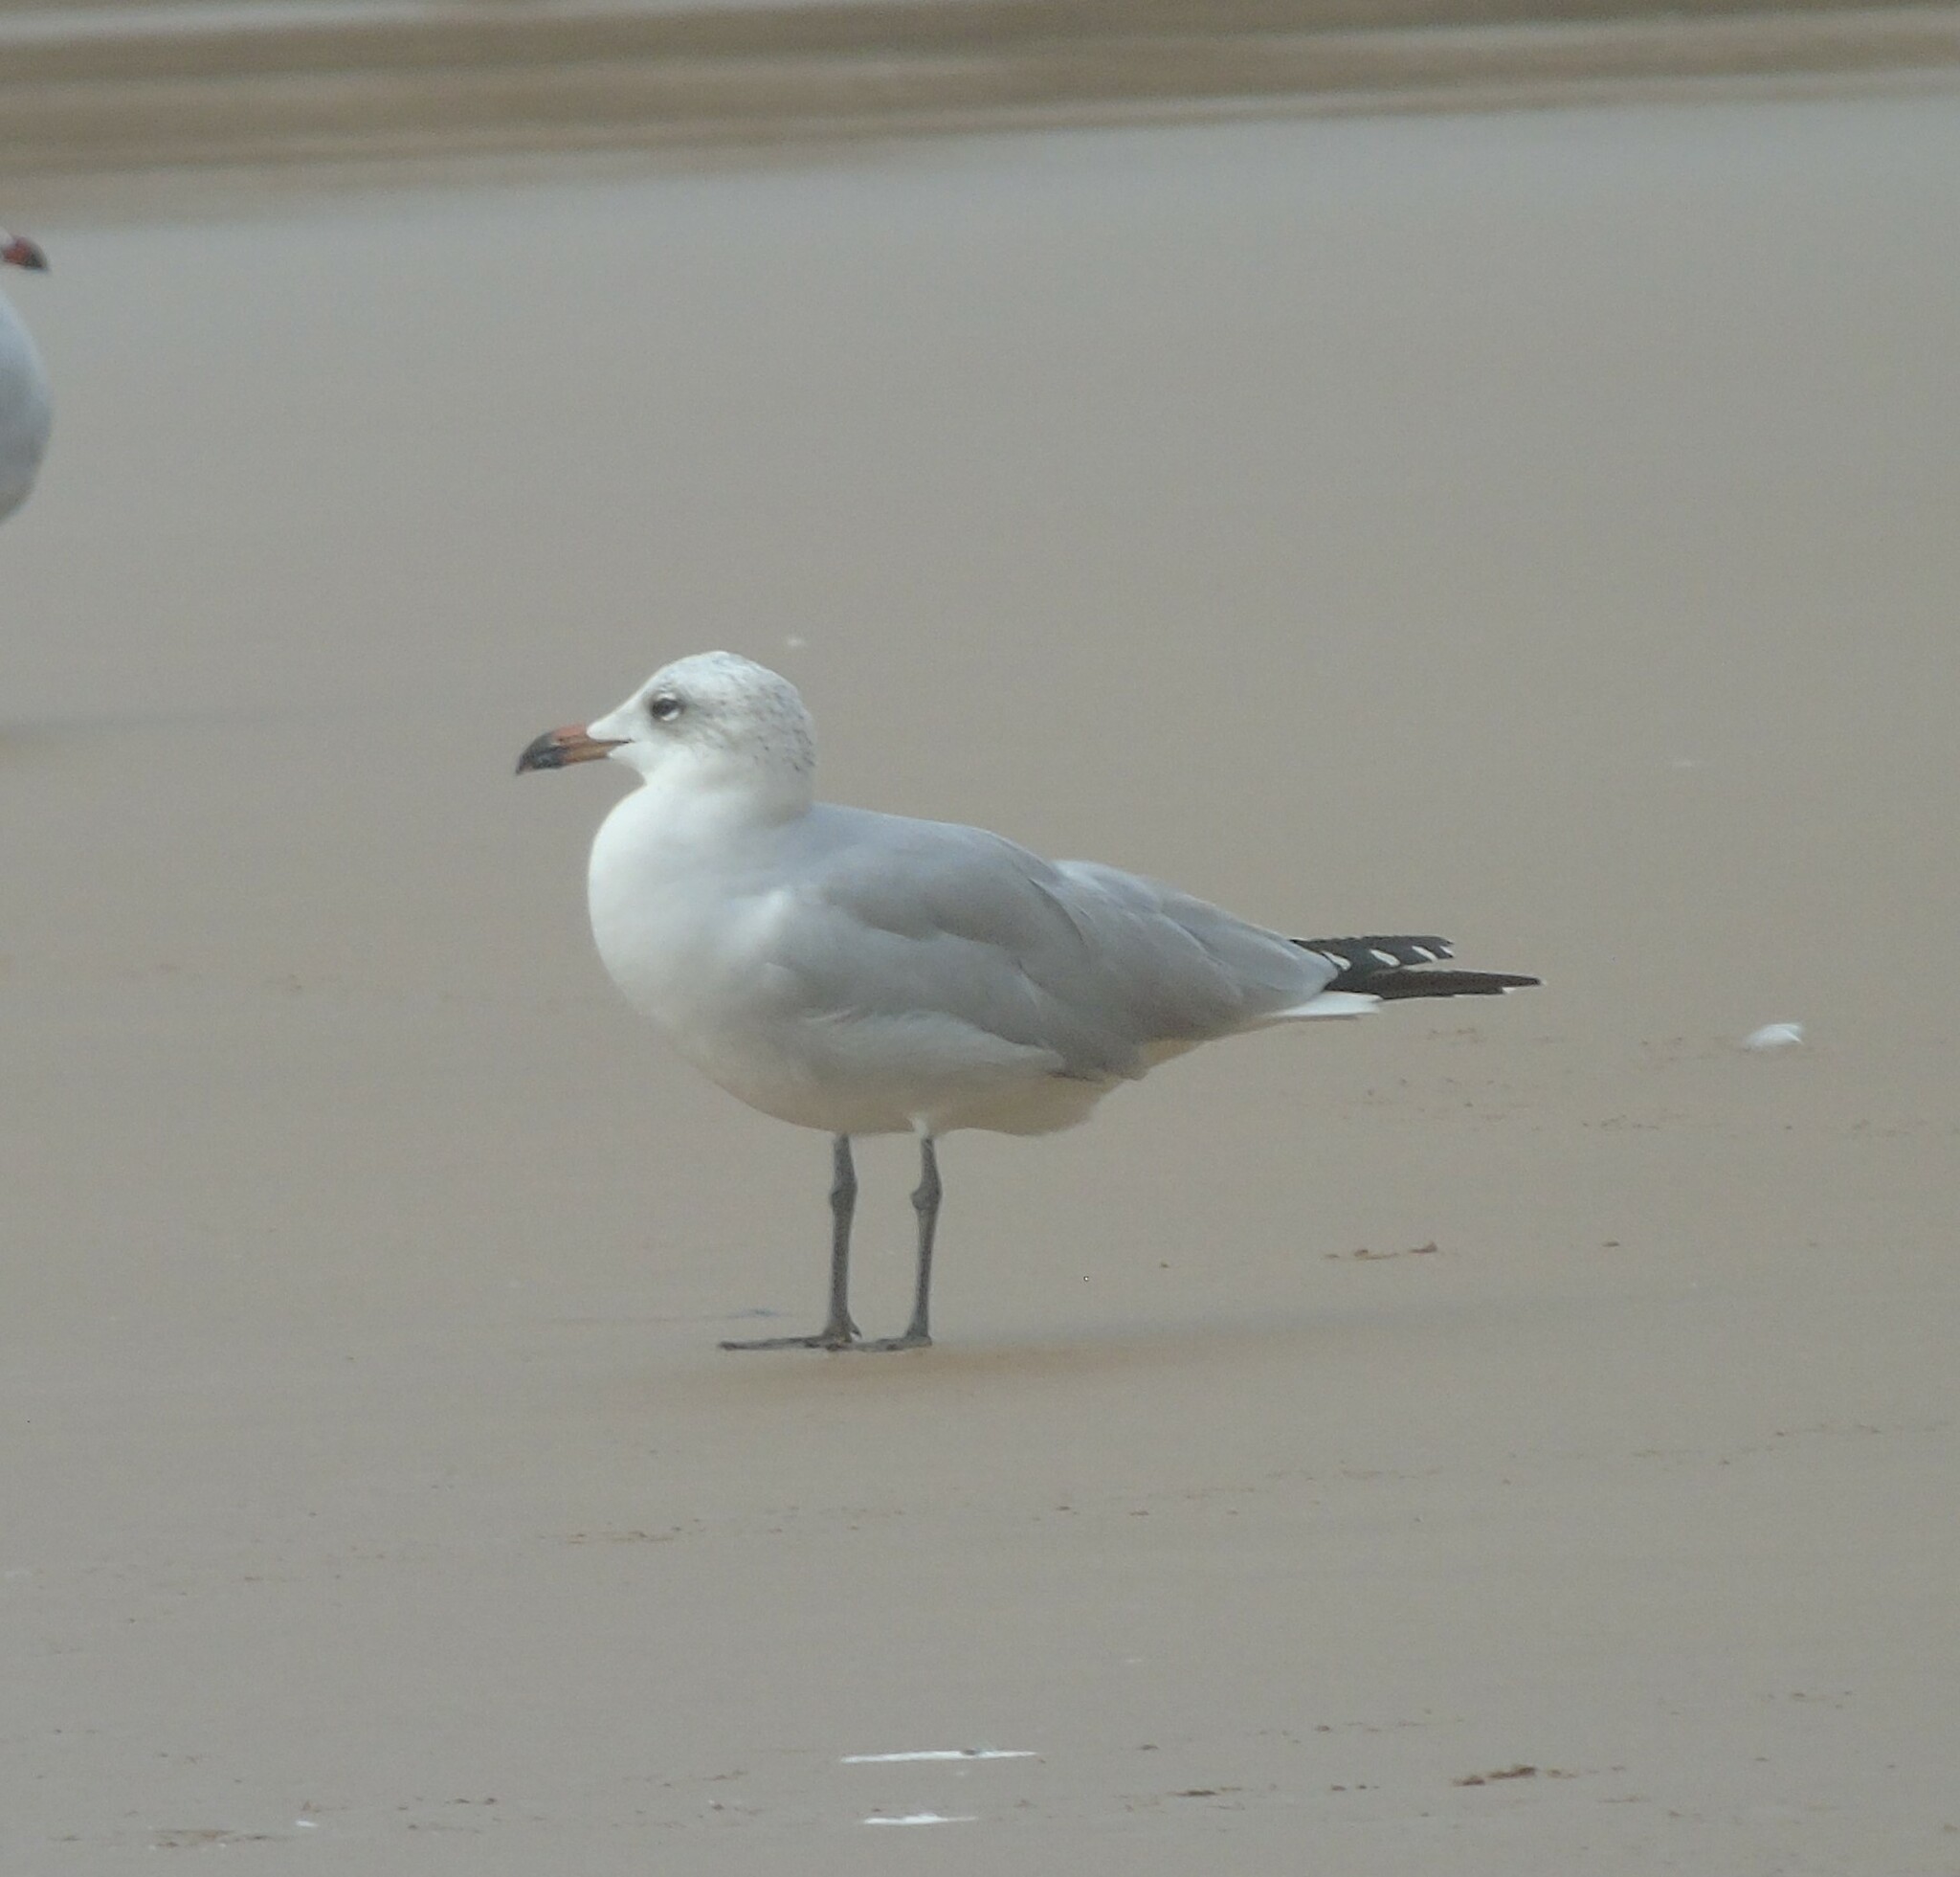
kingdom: Animalia
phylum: Chordata
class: Aves
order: Charadriiformes
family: Laridae
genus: Ichthyaetus
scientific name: Ichthyaetus audouinii
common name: Audouin's gull
